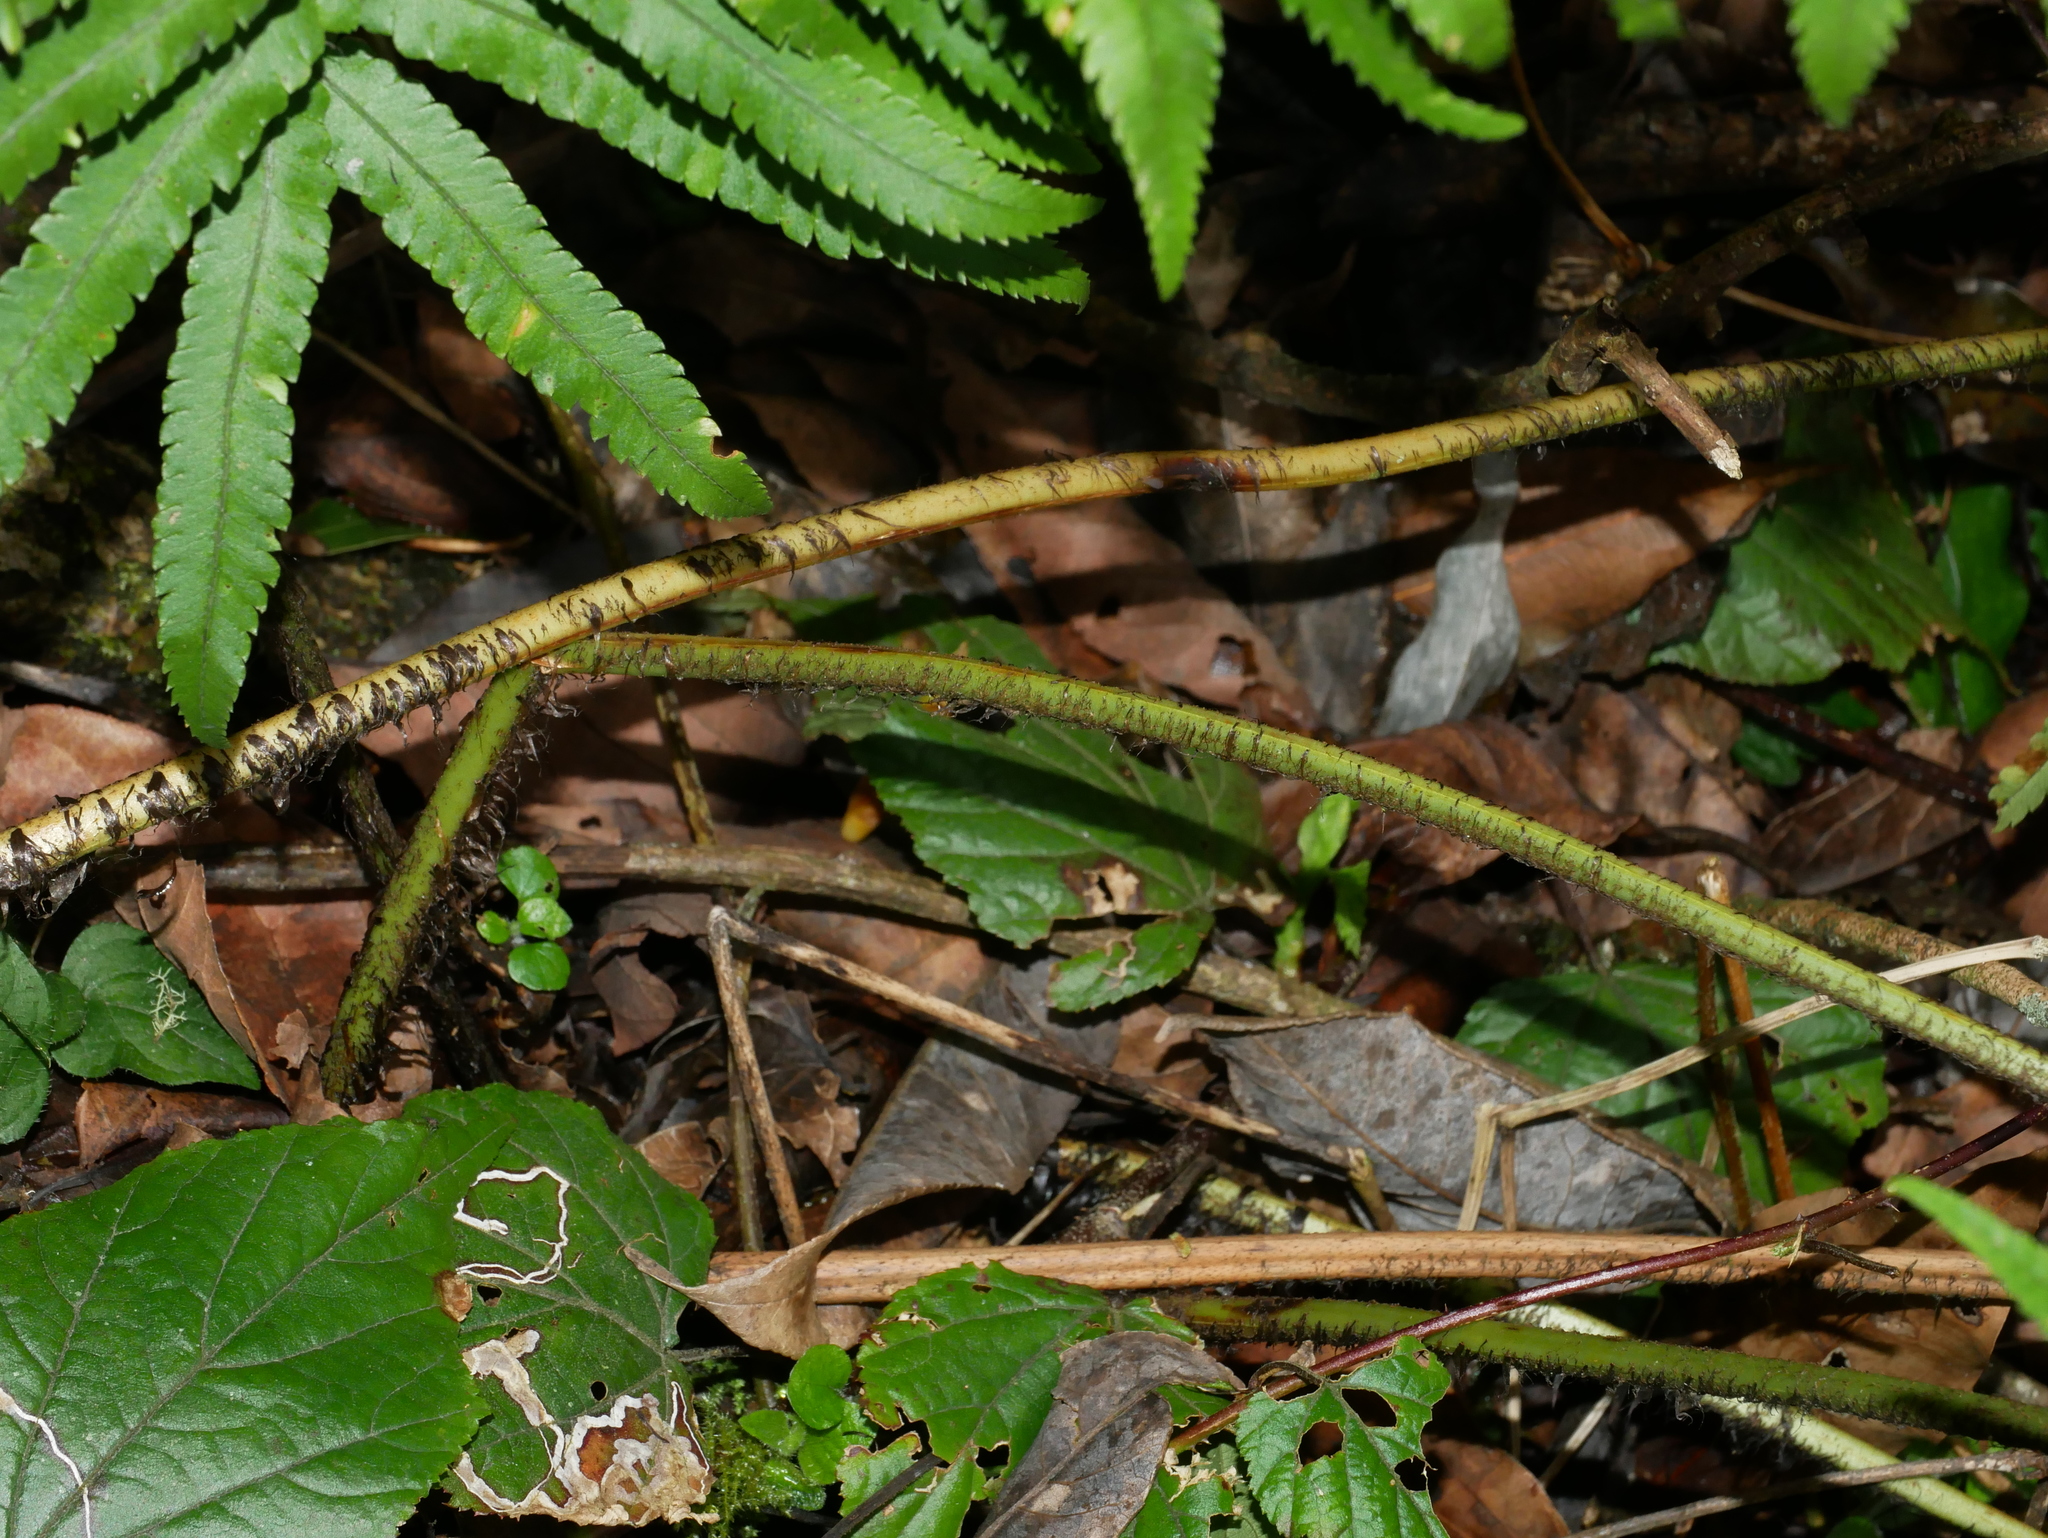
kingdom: Plantae
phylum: Tracheophyta
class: Polypodiopsida
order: Polypodiales
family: Dryopteridaceae
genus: Dryopteris
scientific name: Dryopteris namegatae
